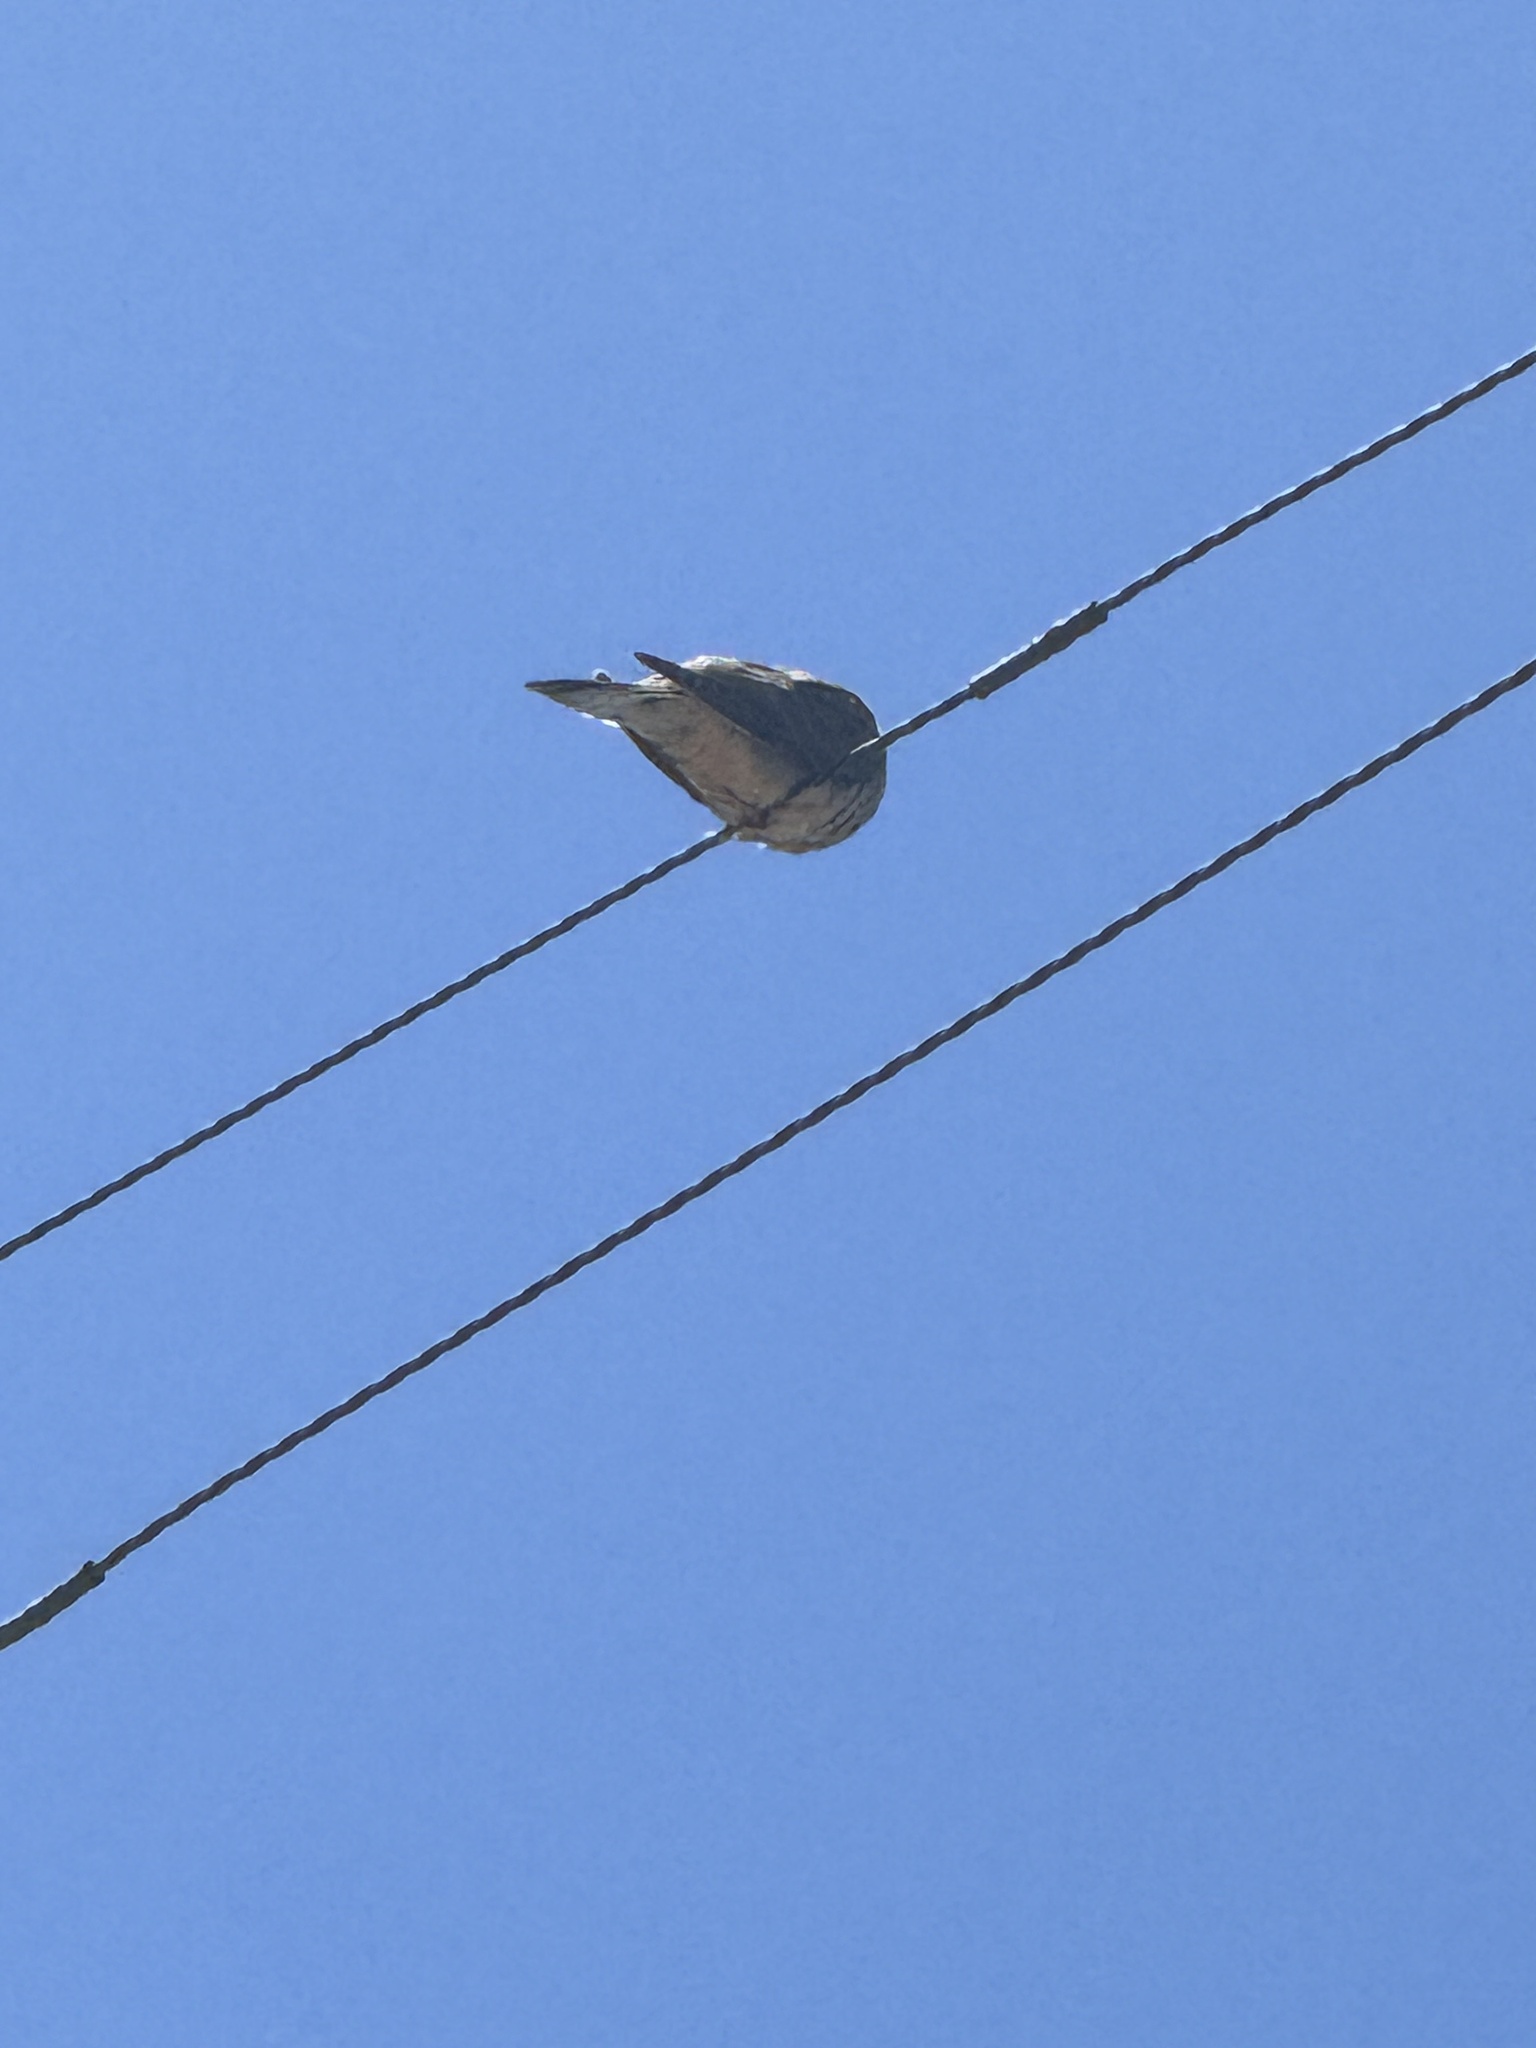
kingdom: Animalia
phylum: Chordata
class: Aves
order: Columbiformes
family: Columbidae
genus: Zenaida
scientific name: Zenaida macroura
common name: Mourning dove
